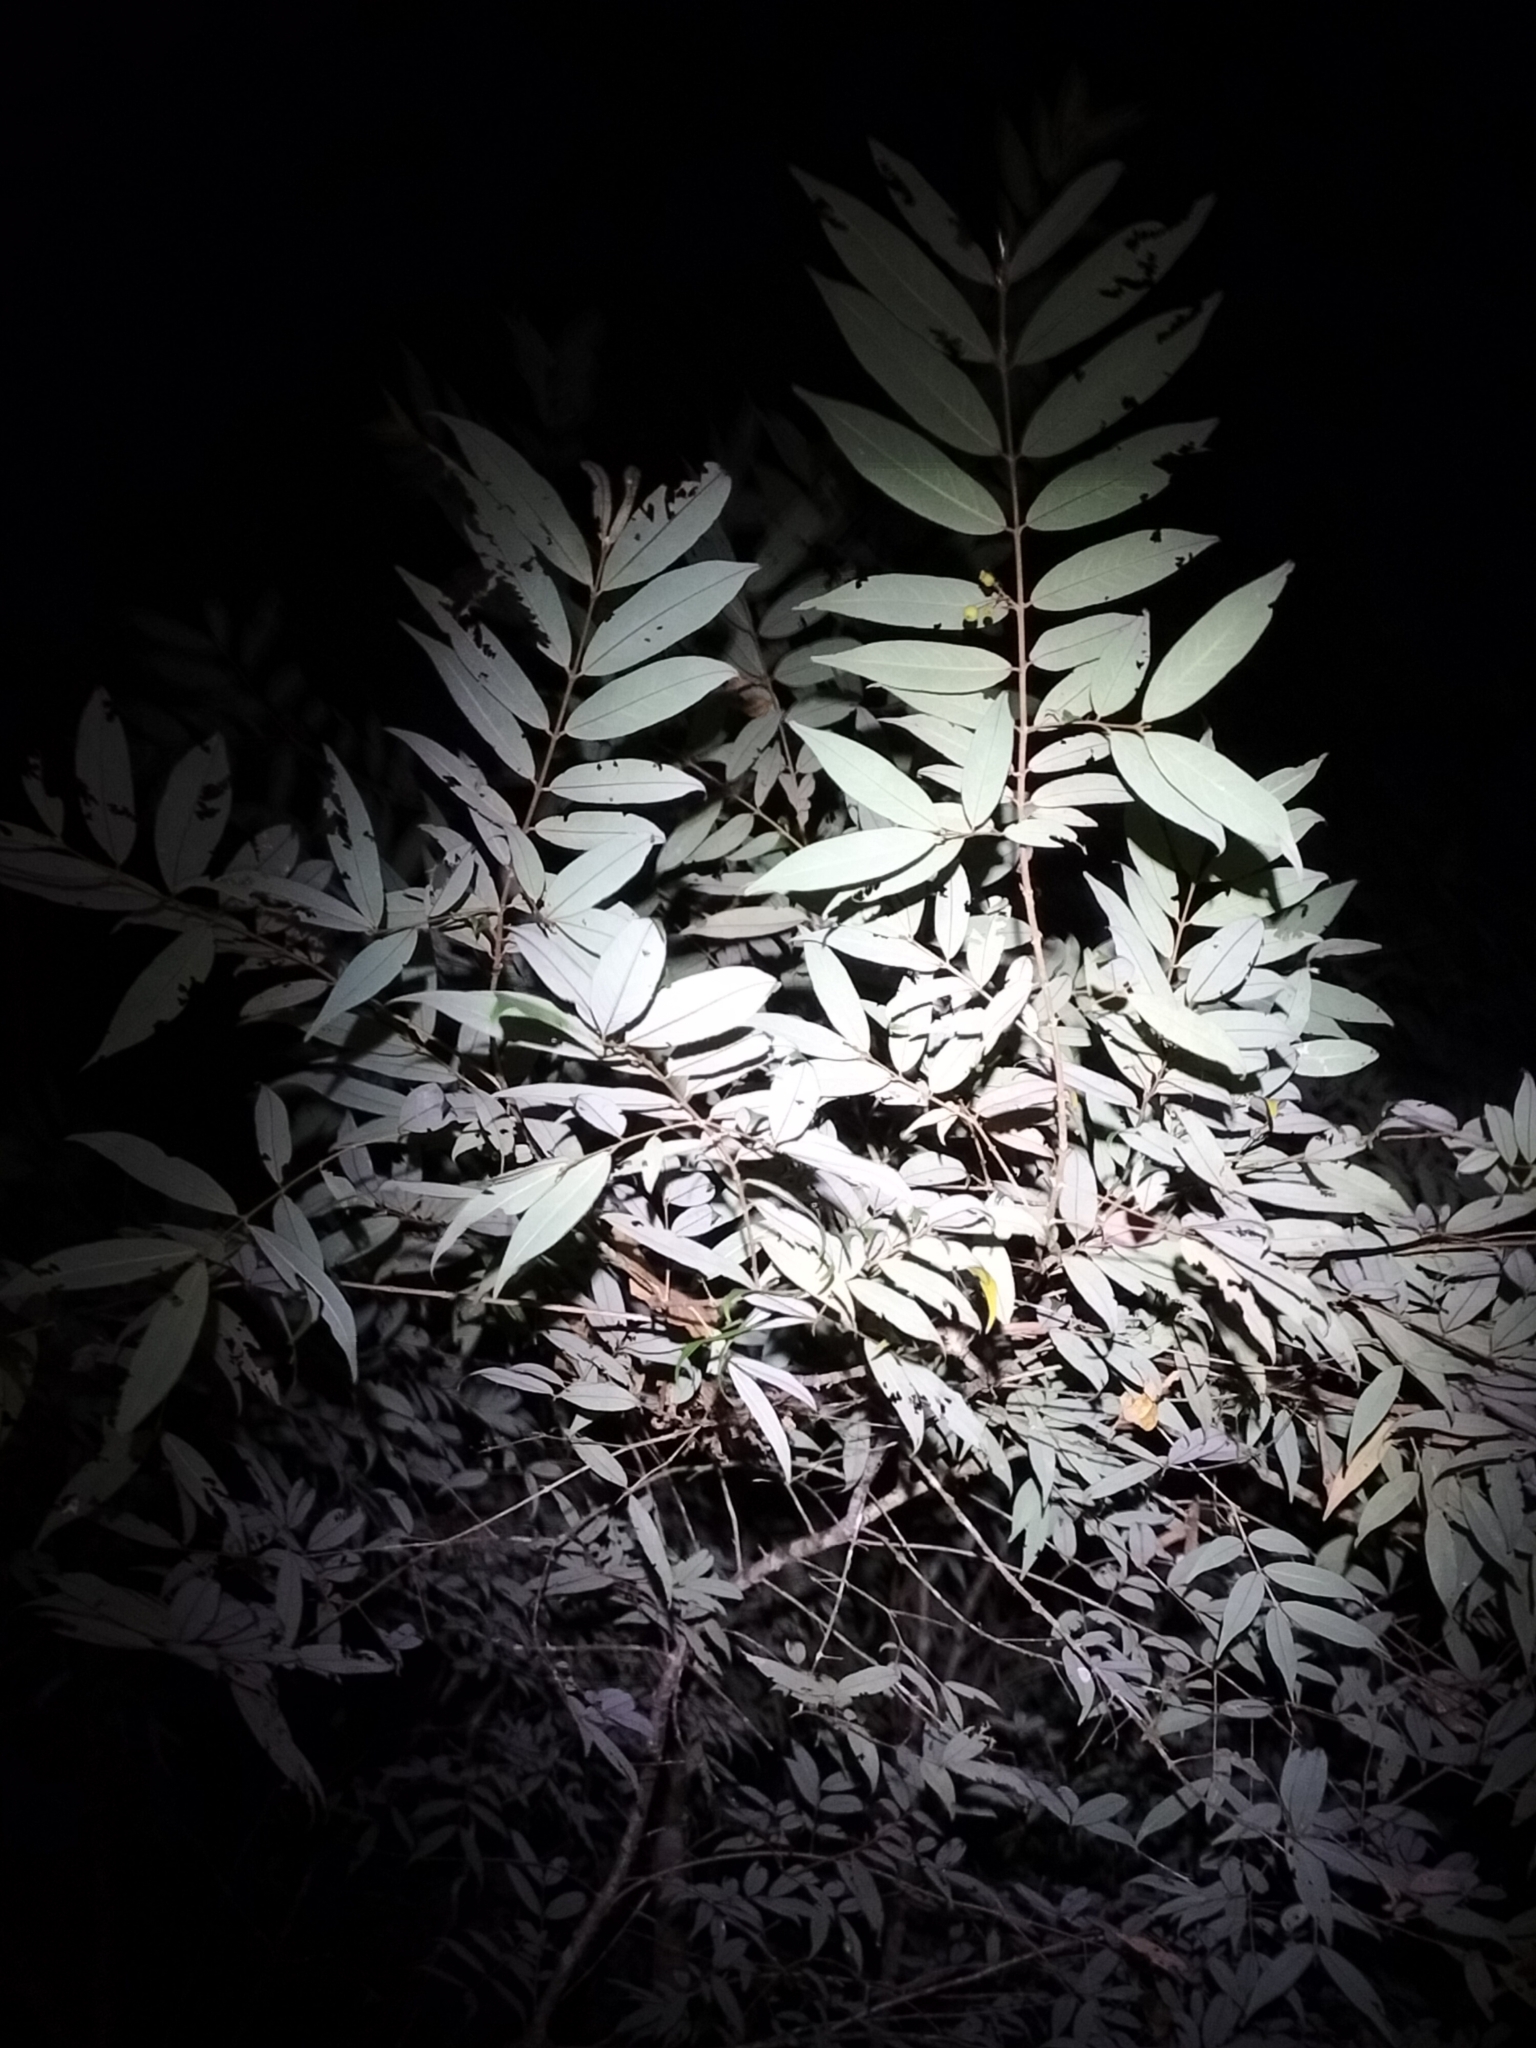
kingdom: Plantae
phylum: Tracheophyta
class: Magnoliopsida
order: Oxalidales
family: Elaeocarpaceae
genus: Aceratium
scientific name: Aceratium megalospermum
